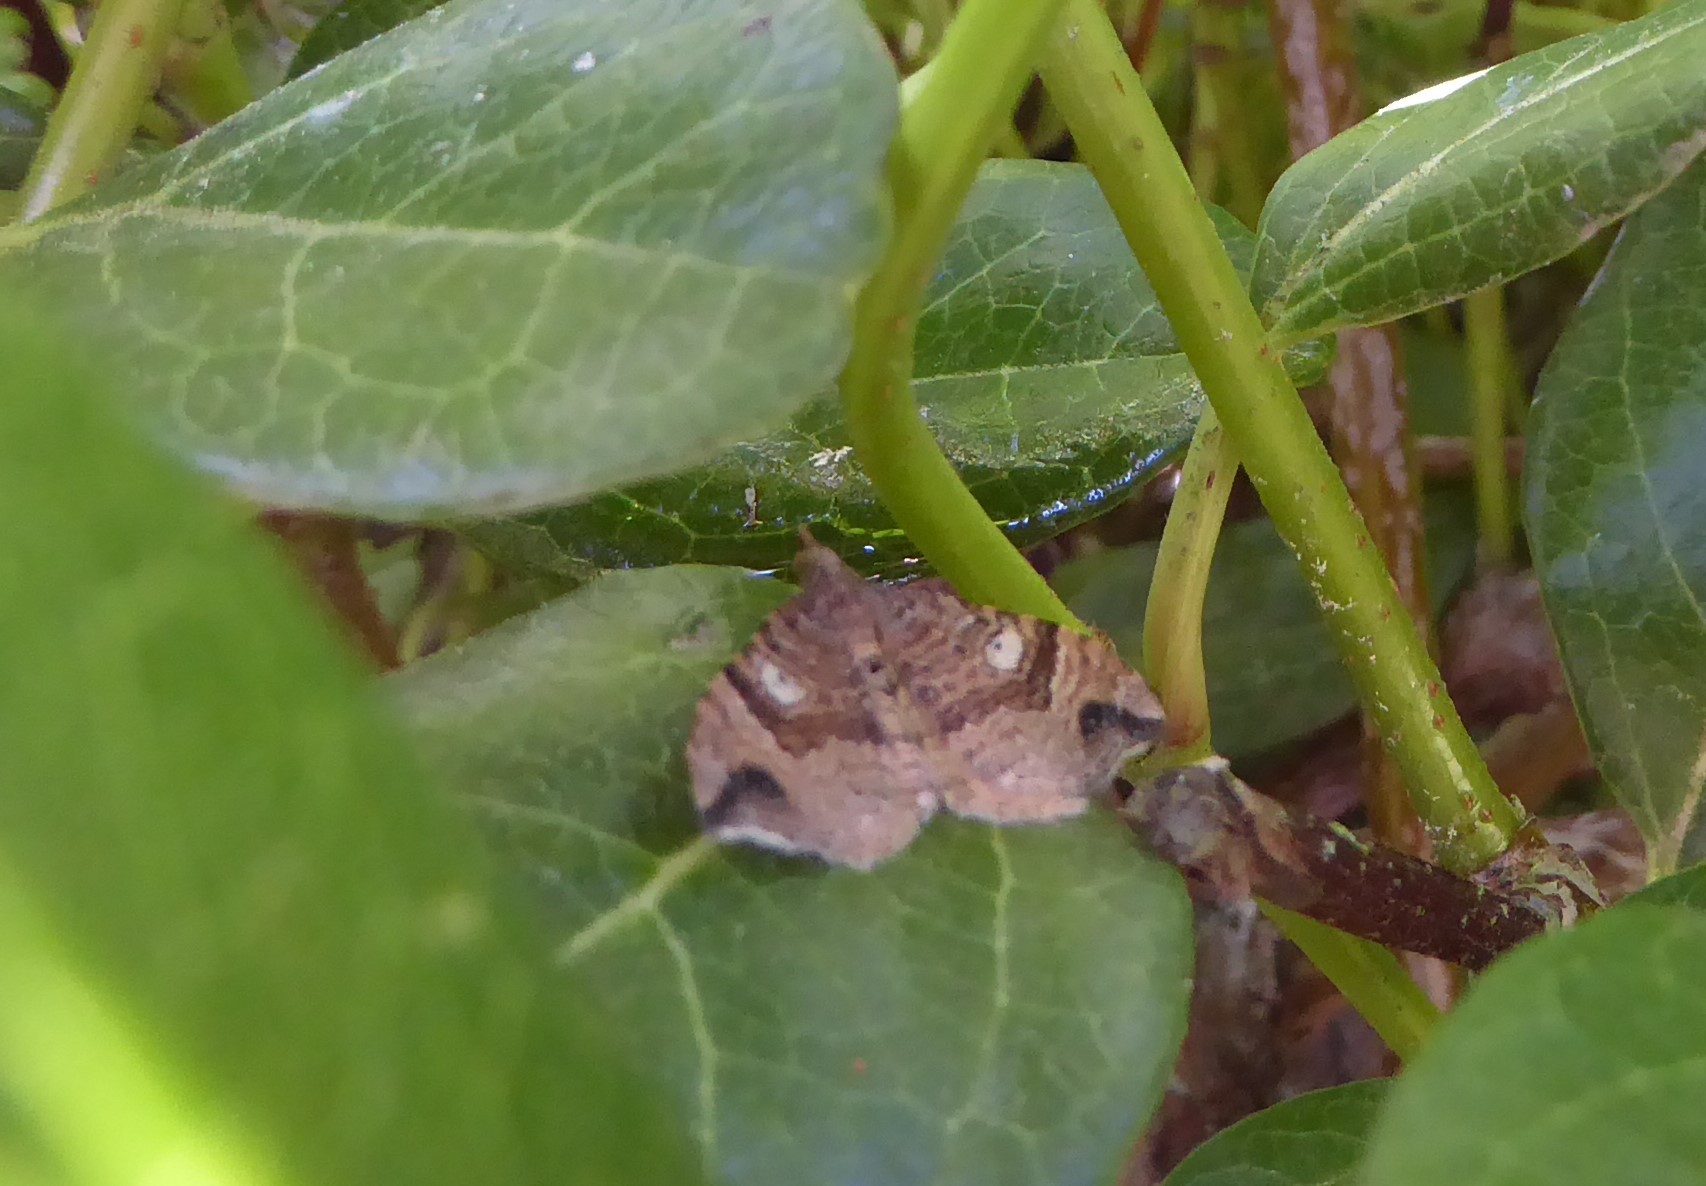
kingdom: Animalia
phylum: Arthropoda
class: Insecta
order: Lepidoptera
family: Geometridae
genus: Homodotis
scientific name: Homodotis megaspilata
